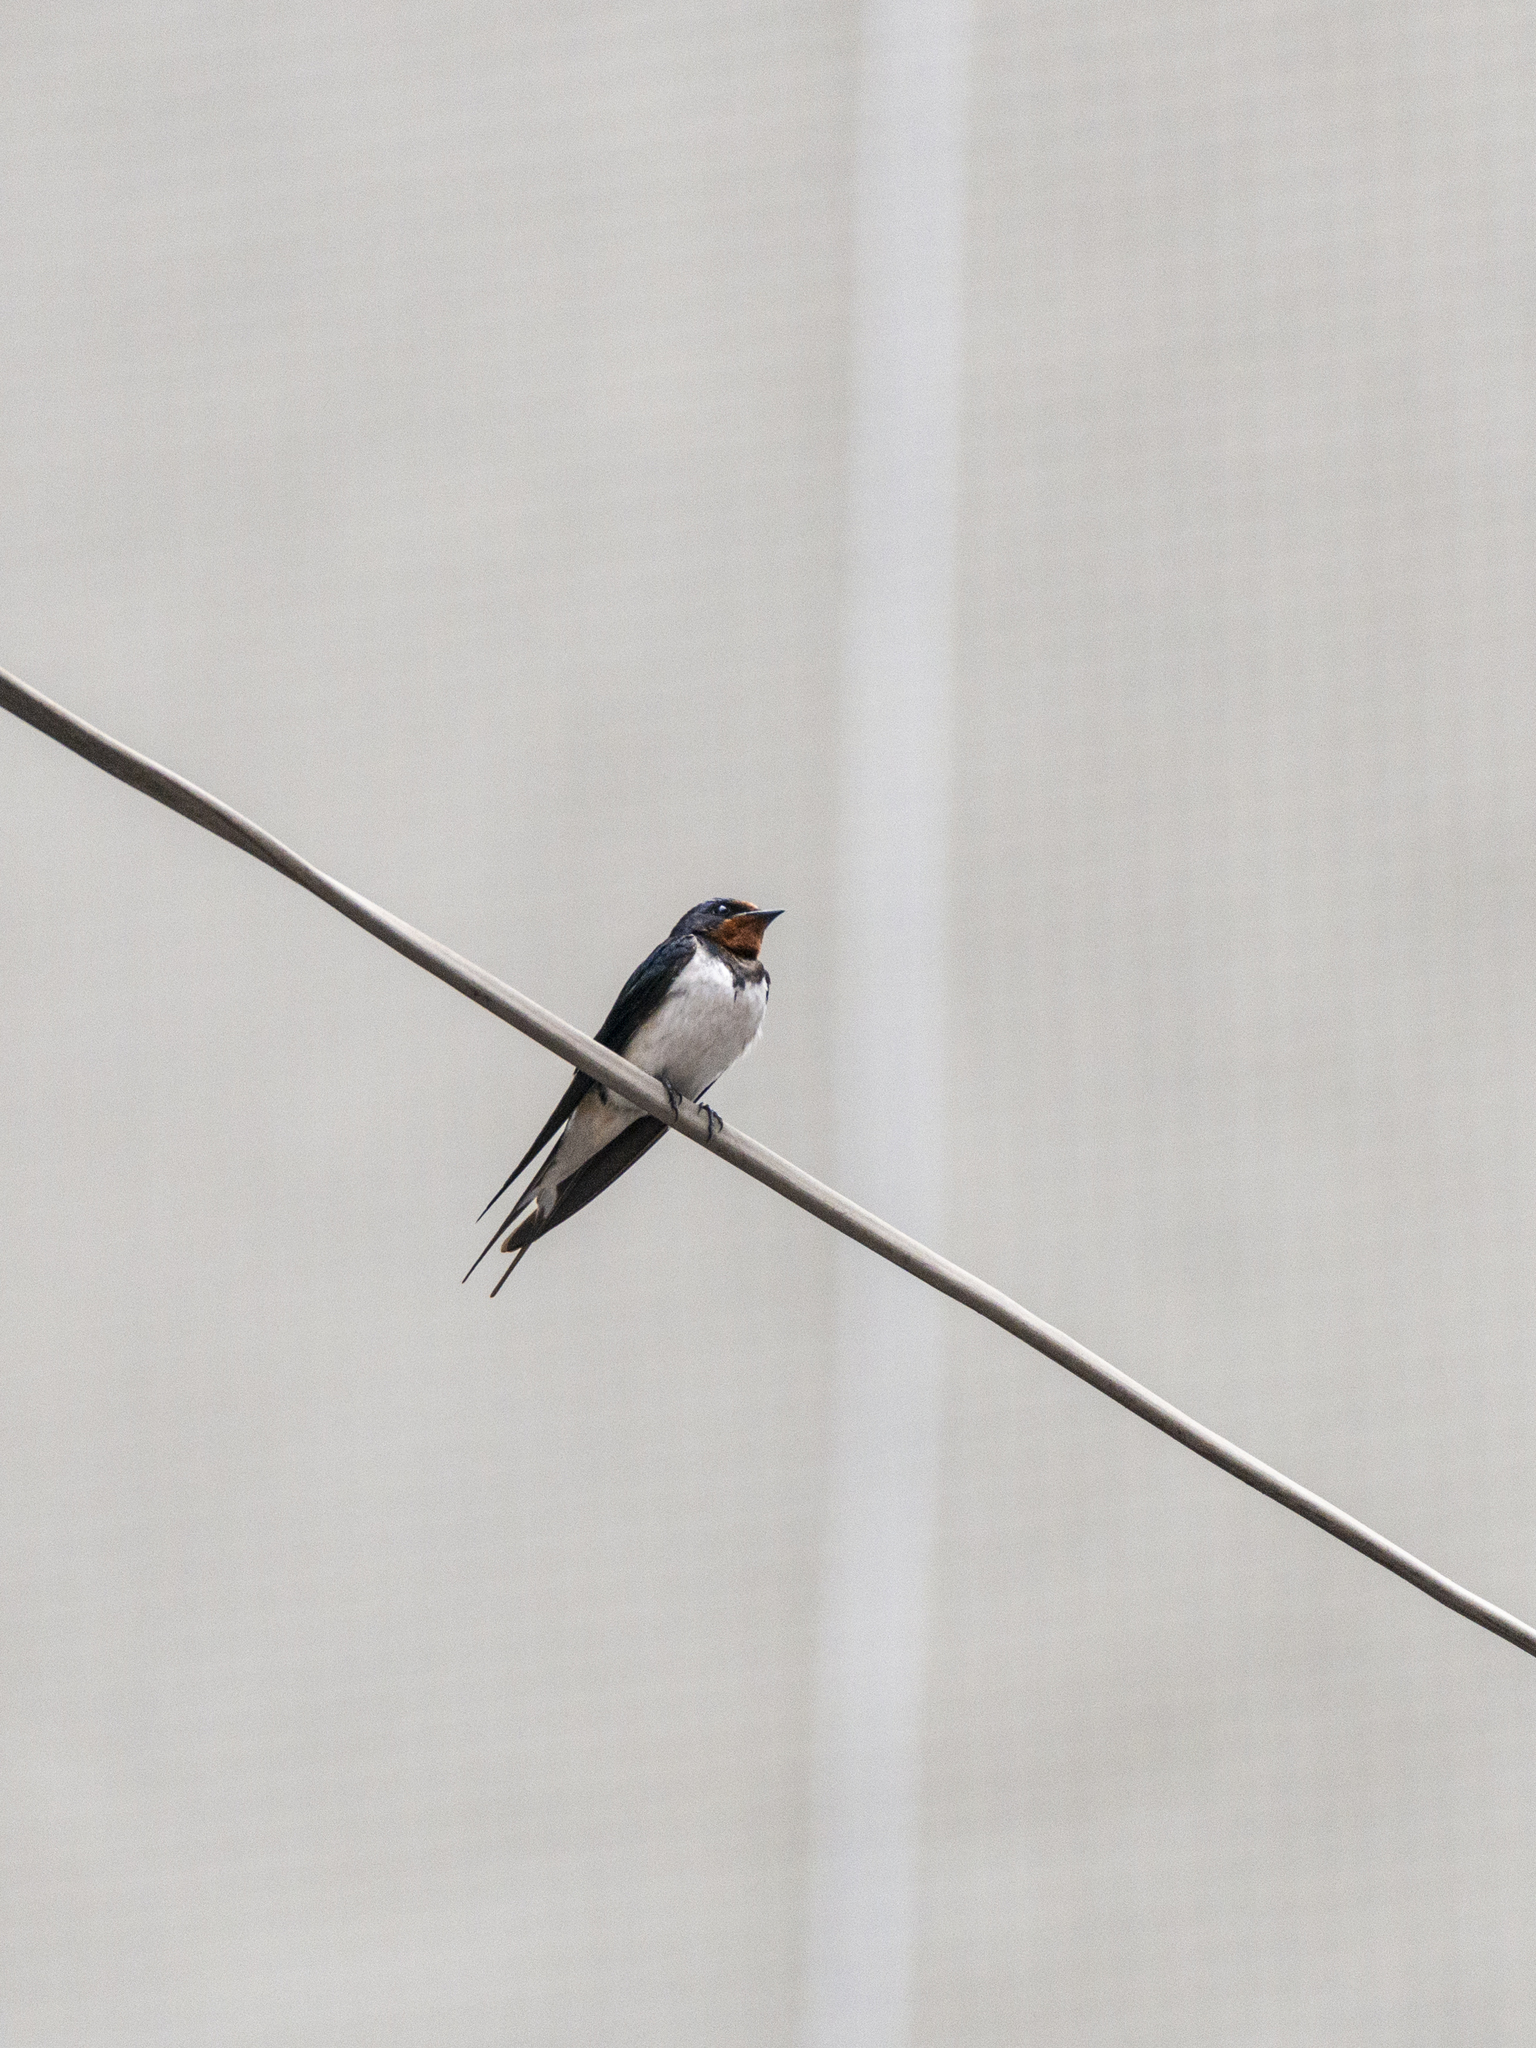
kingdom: Animalia
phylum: Chordata
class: Aves
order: Passeriformes
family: Hirundinidae
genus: Hirundo
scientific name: Hirundo rustica
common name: Barn swallow
